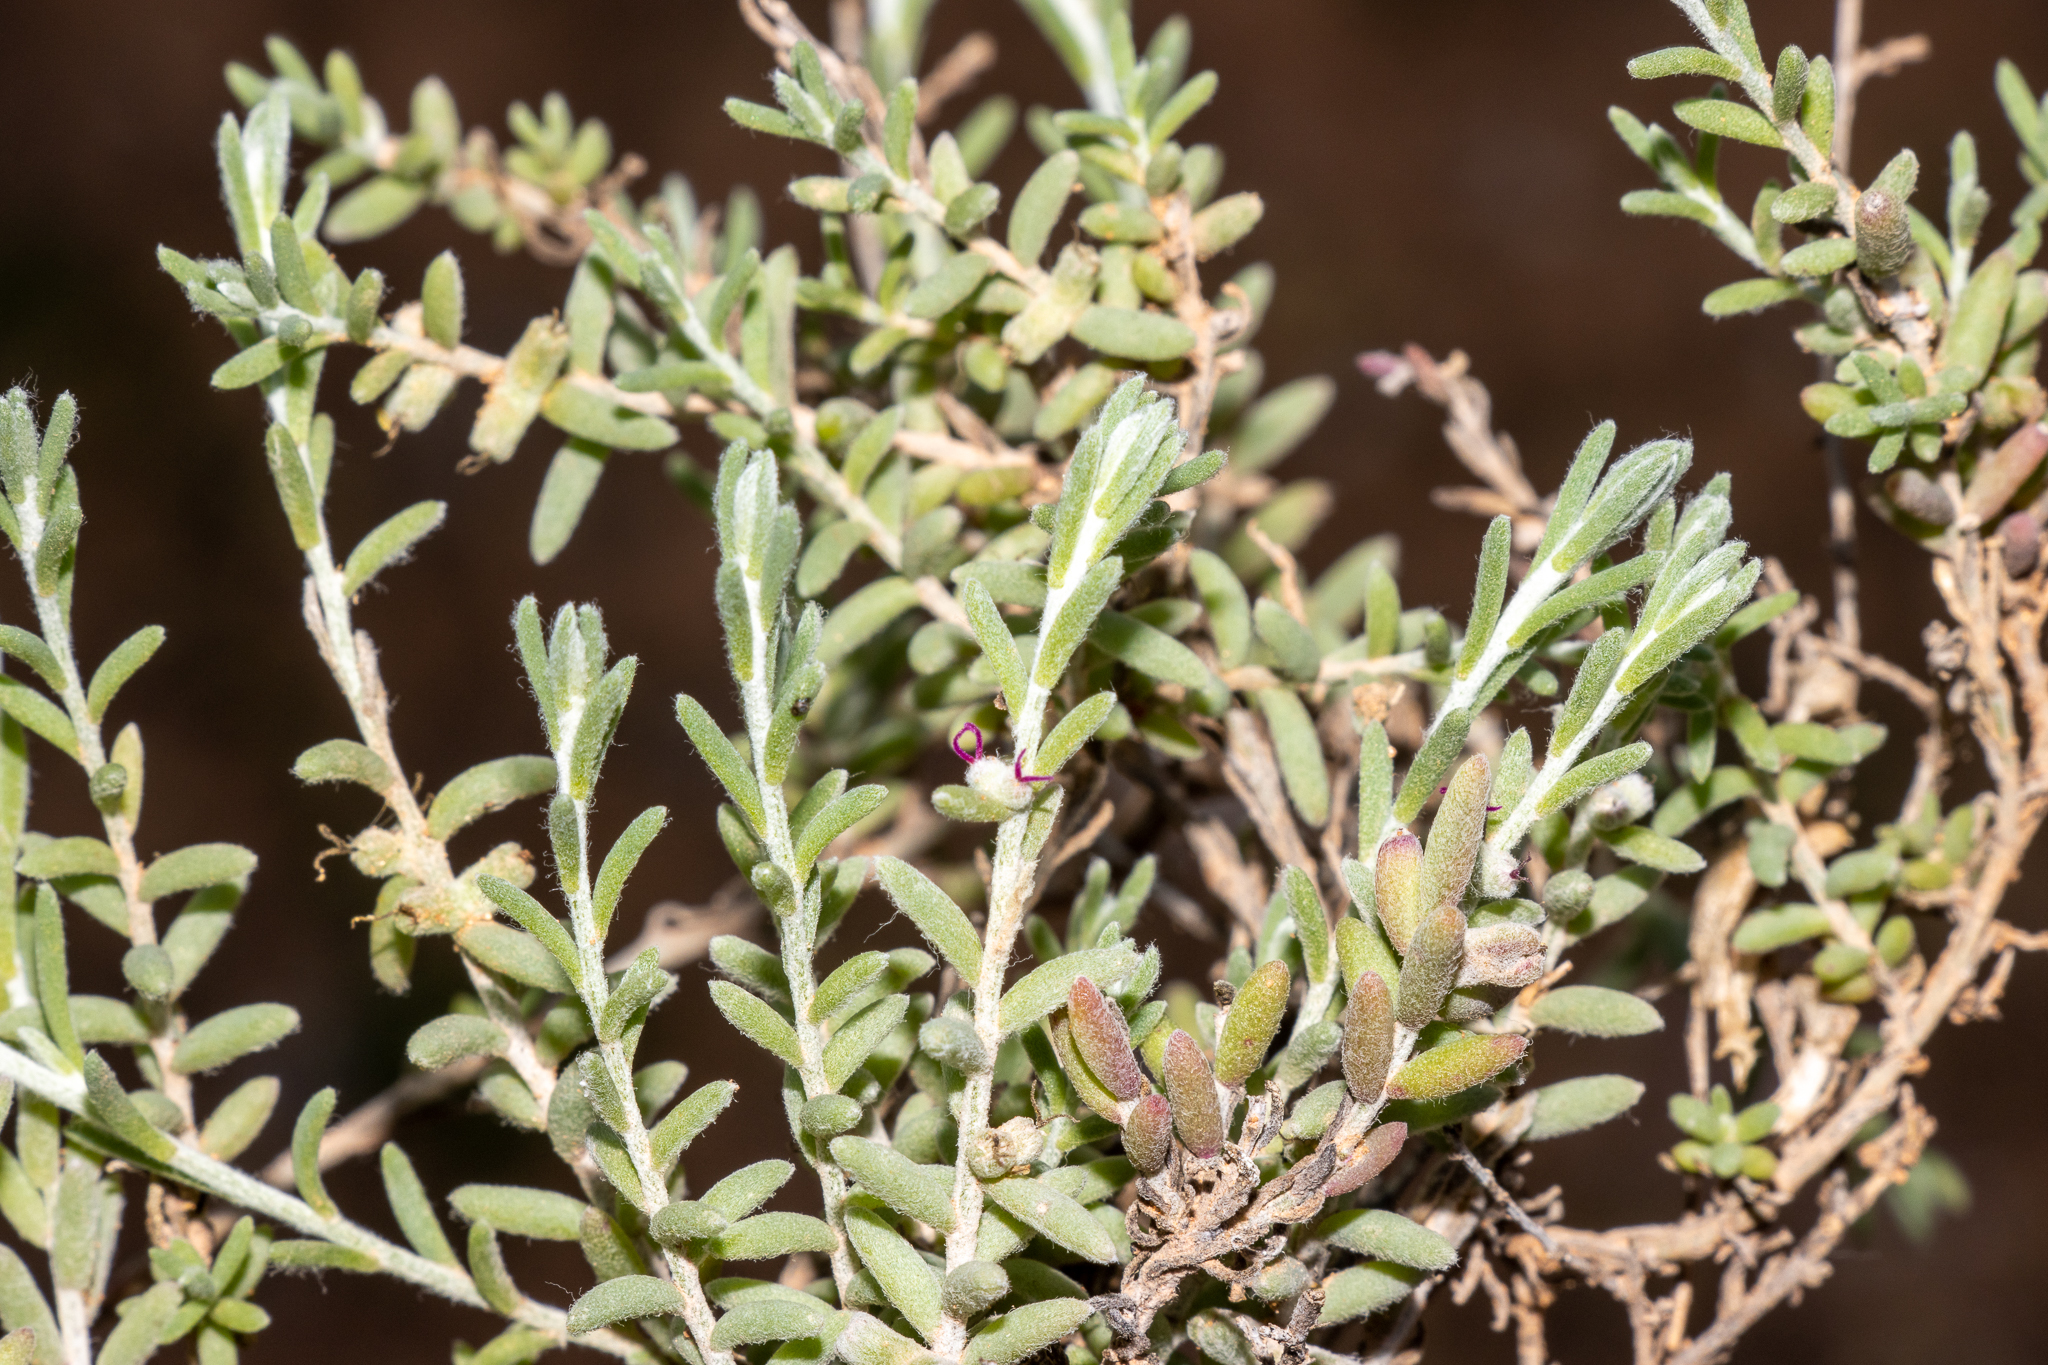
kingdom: Plantae
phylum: Tracheophyta
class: Magnoliopsida
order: Caryophyllales
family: Amaranthaceae
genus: Dissocarpus
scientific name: Dissocarpus biflorus
